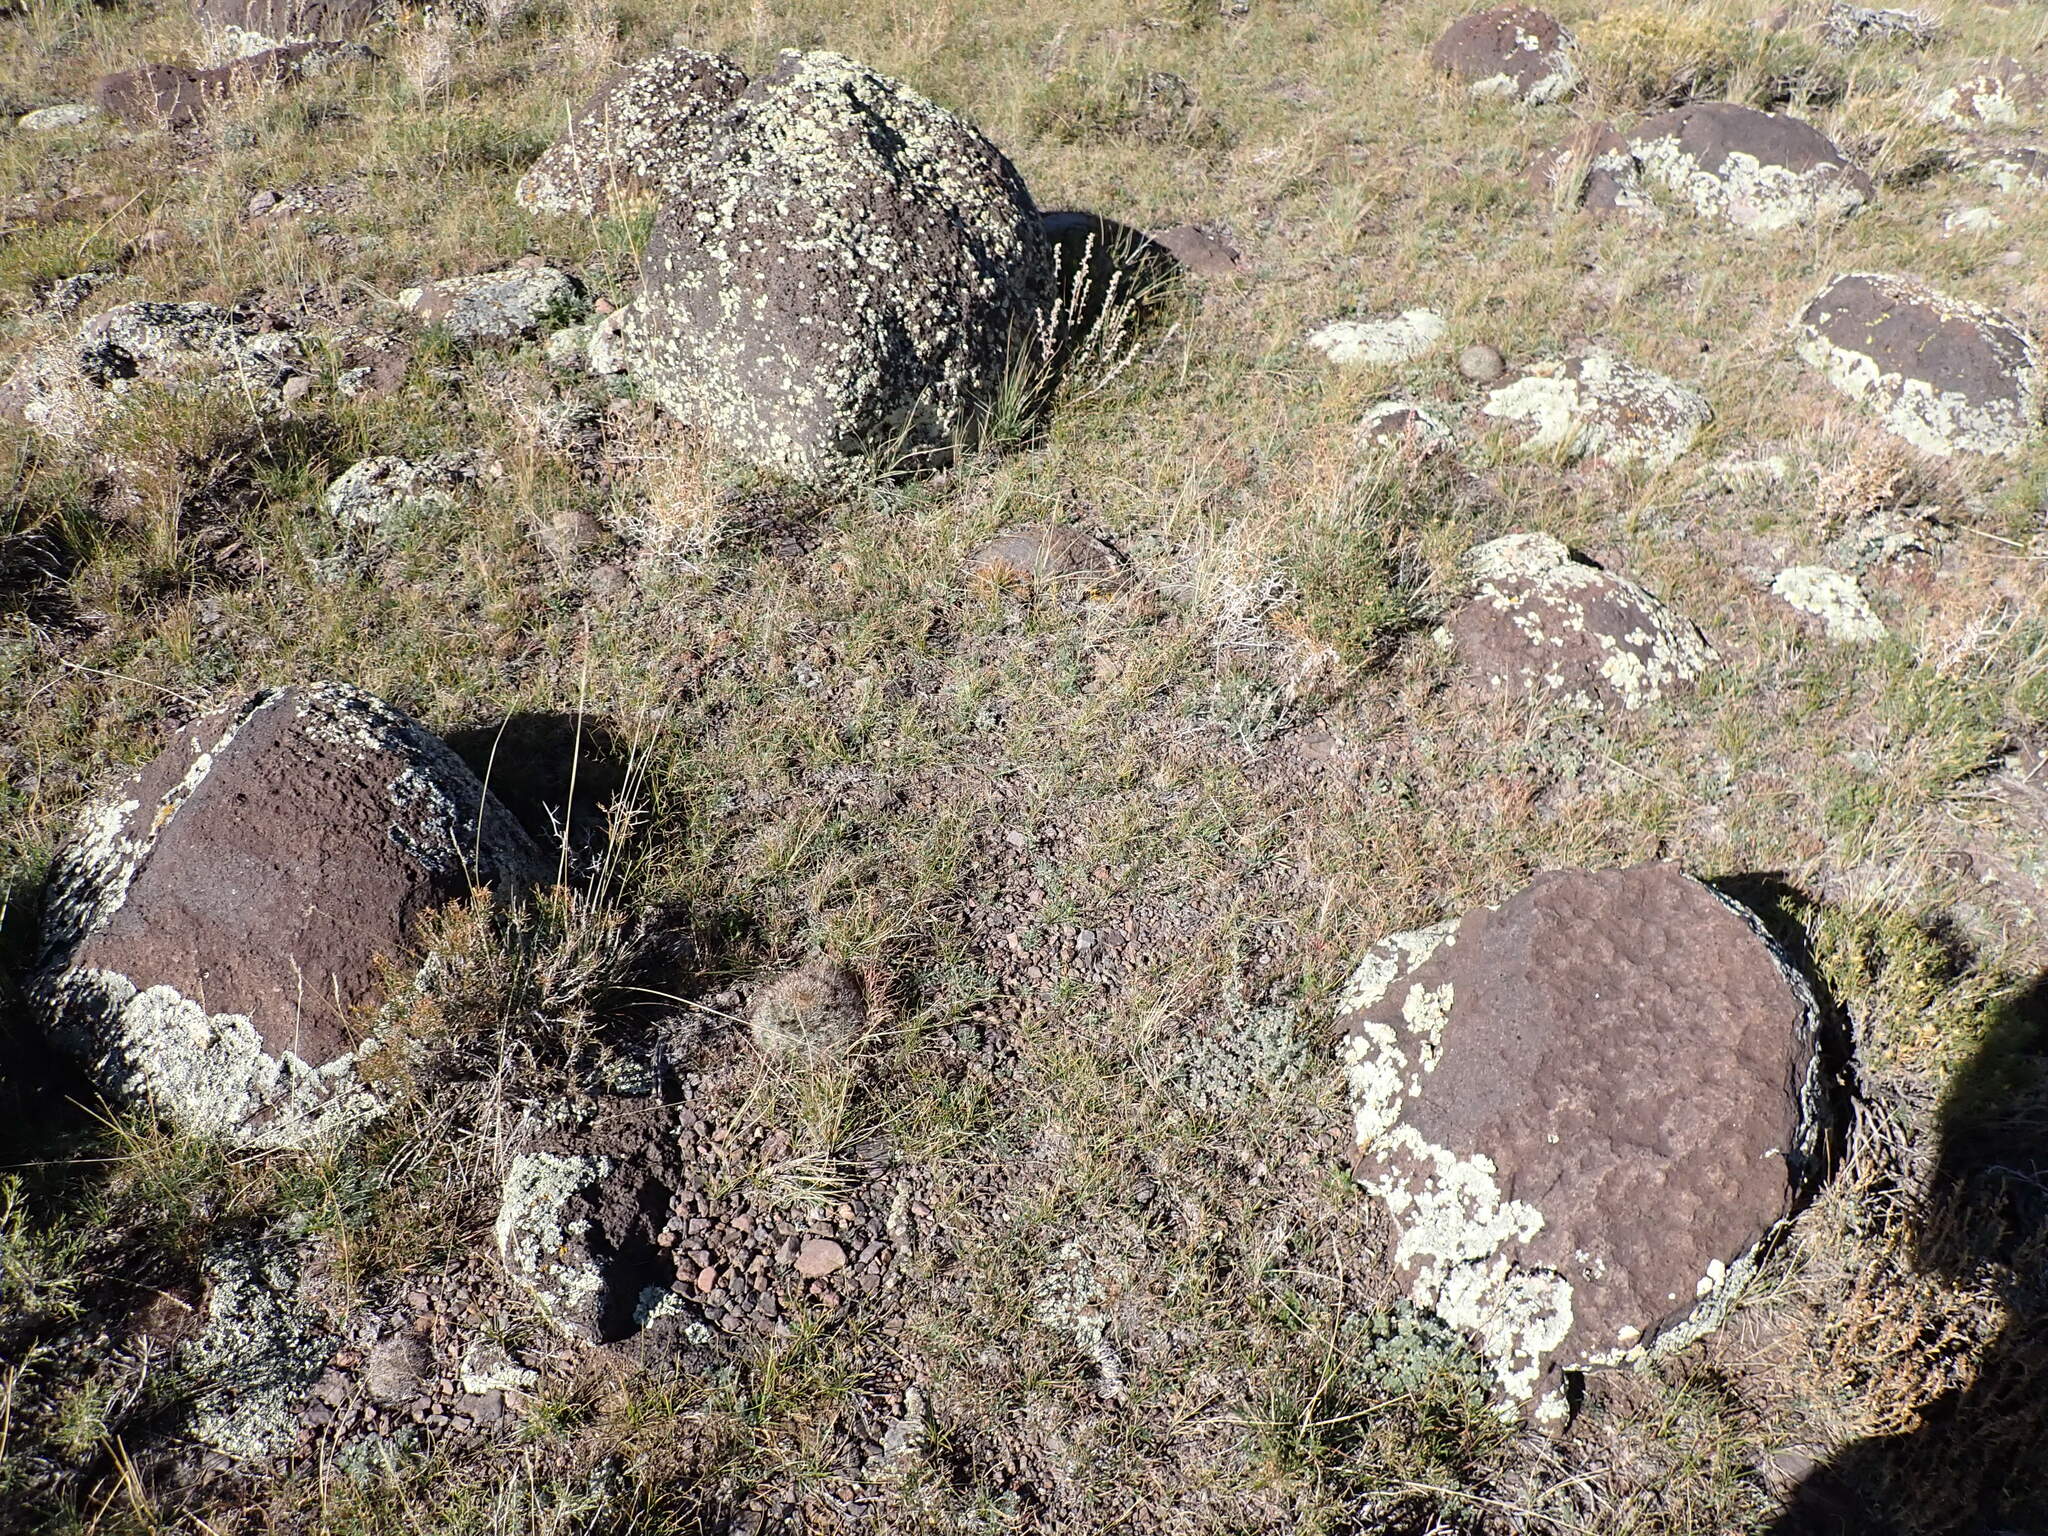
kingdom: Plantae
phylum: Tracheophyta
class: Magnoliopsida
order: Caryophyllales
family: Cactaceae
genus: Pediocactus
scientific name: Pediocactus simpsonii
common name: Simpson's hedgehog cactus
